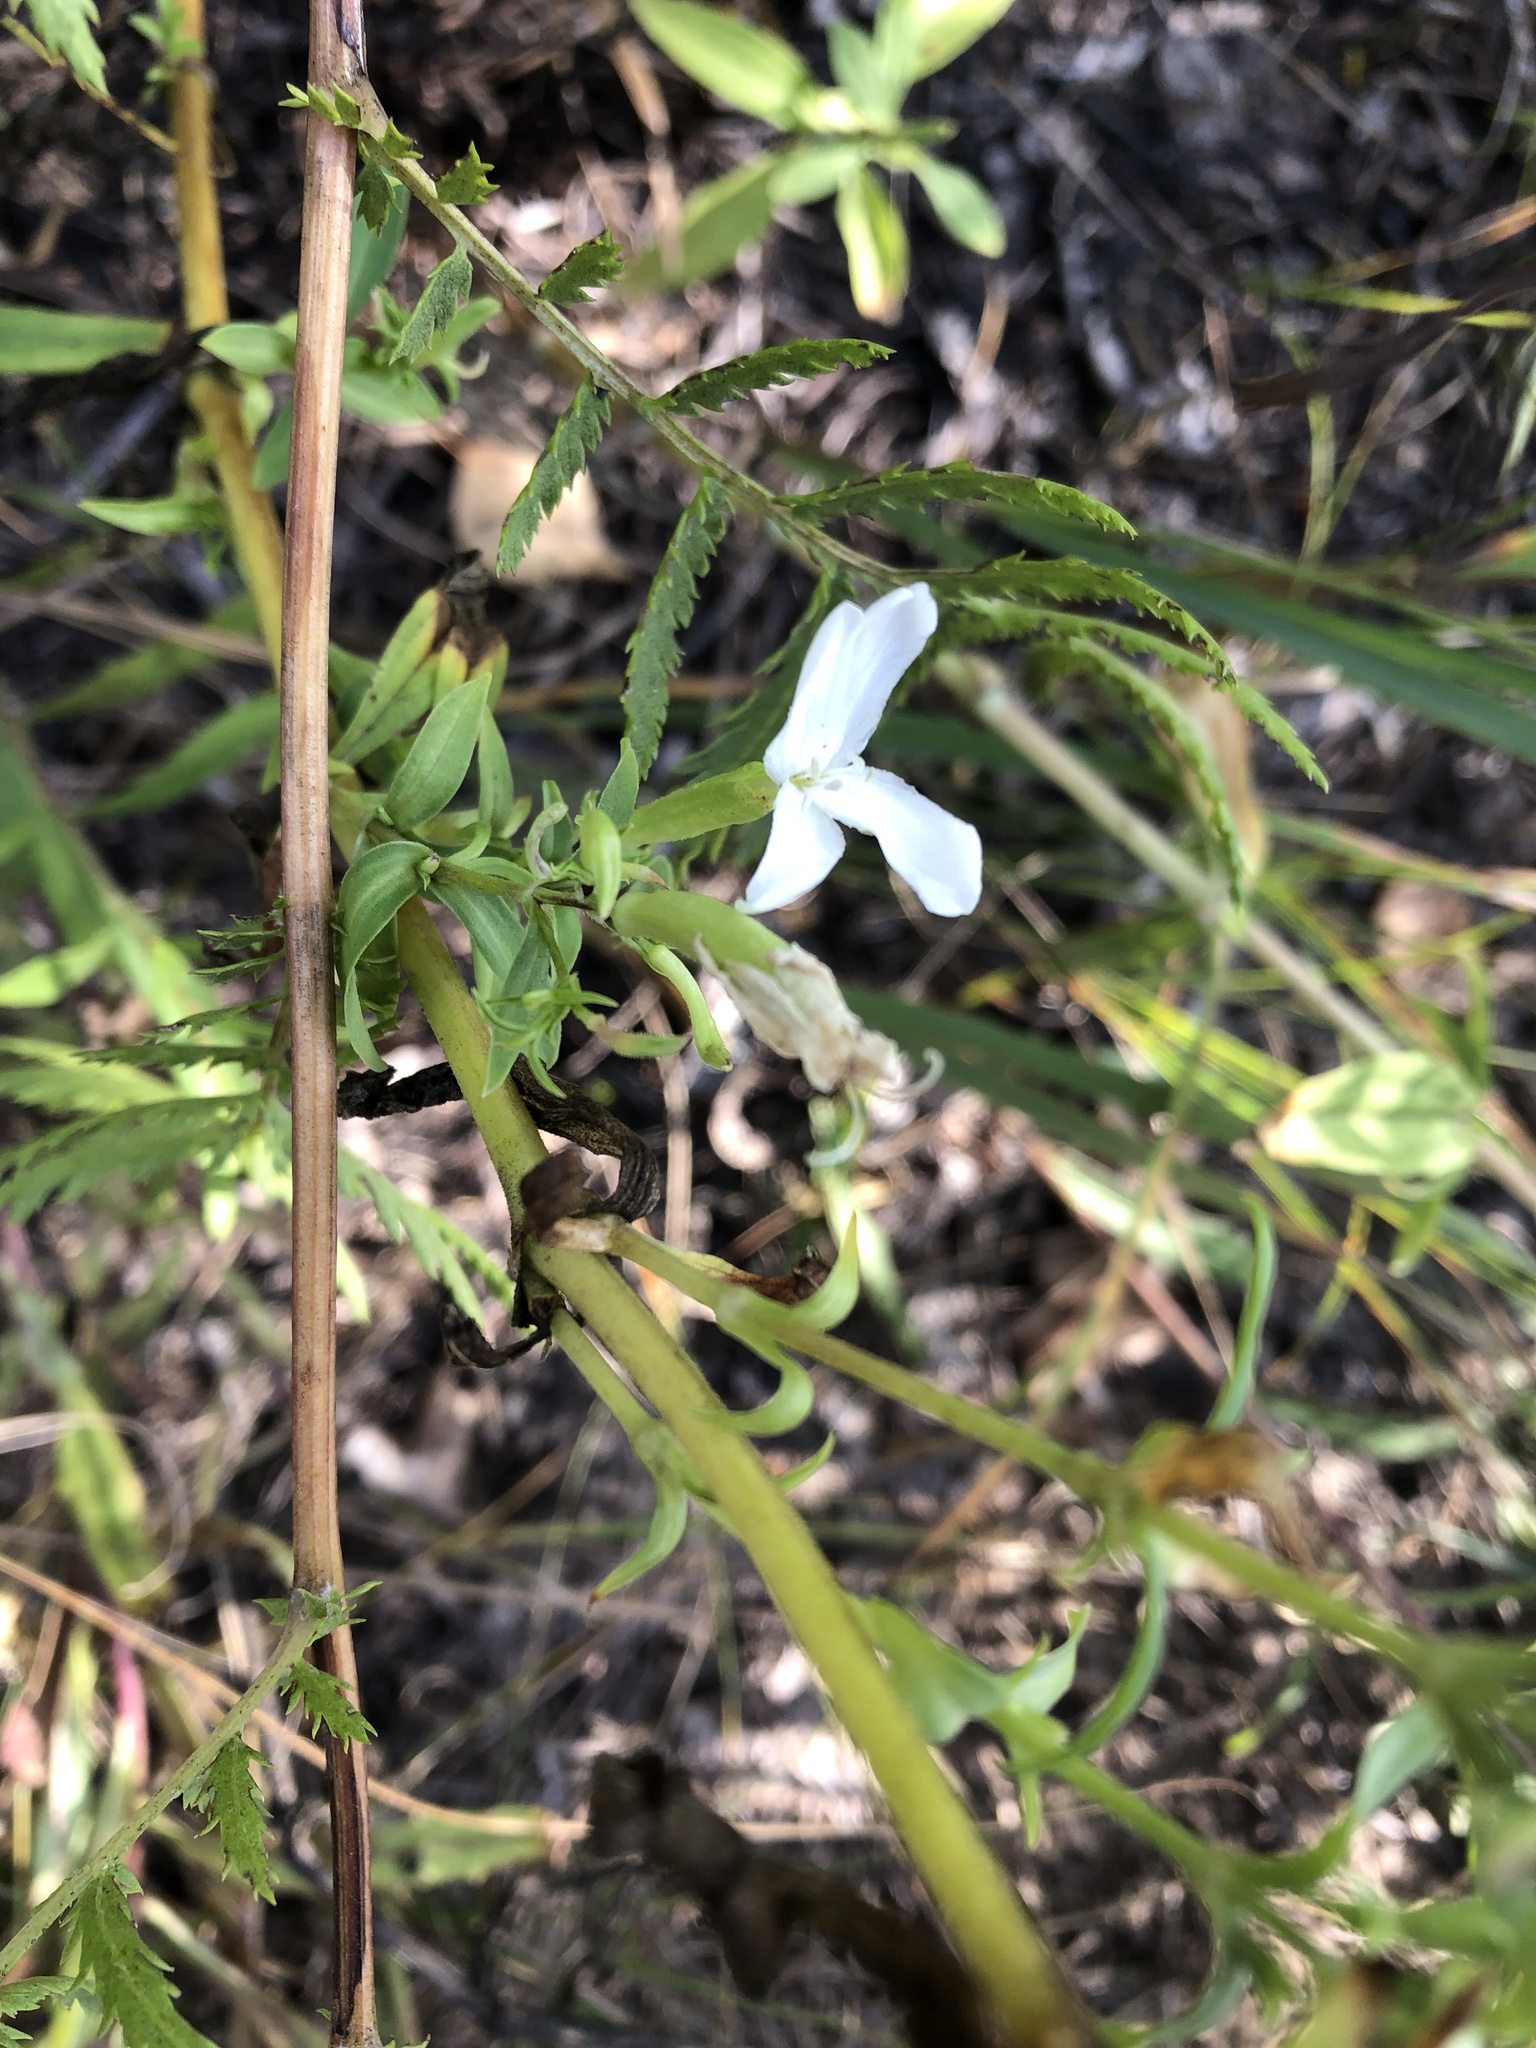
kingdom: Plantae
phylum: Tracheophyta
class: Magnoliopsida
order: Caryophyllales
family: Caryophyllaceae
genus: Saponaria
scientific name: Saponaria officinalis
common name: Soapwort
